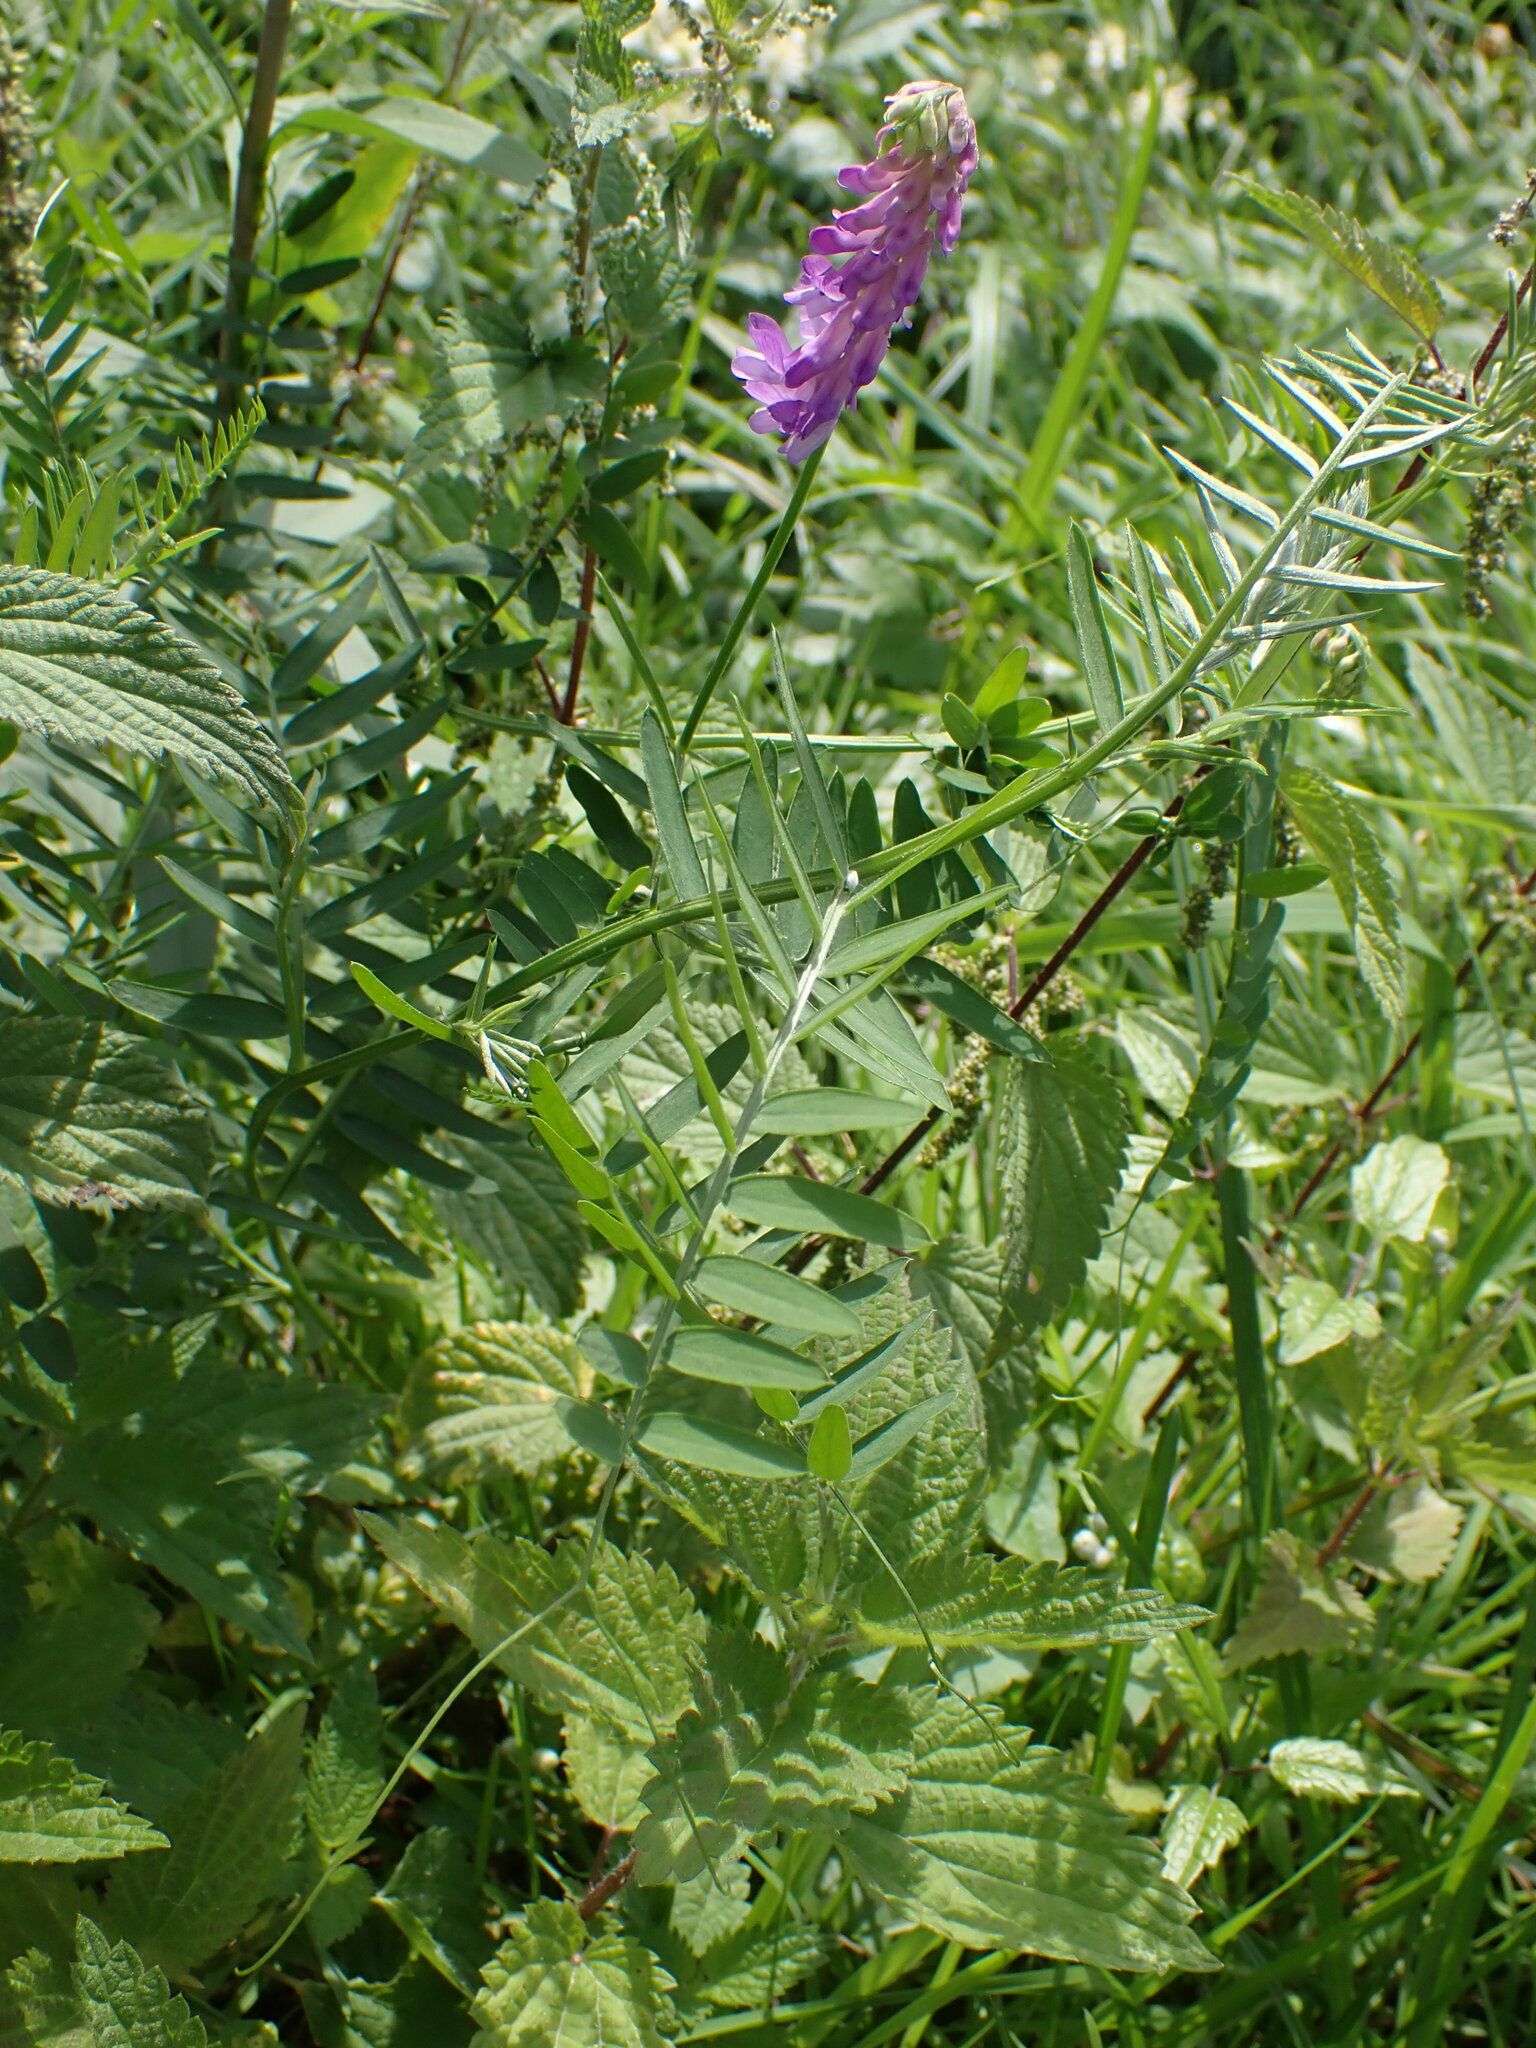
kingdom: Plantae
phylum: Tracheophyta
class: Magnoliopsida
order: Fabales
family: Fabaceae
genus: Vicia
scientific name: Vicia cracca
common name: Bird vetch
